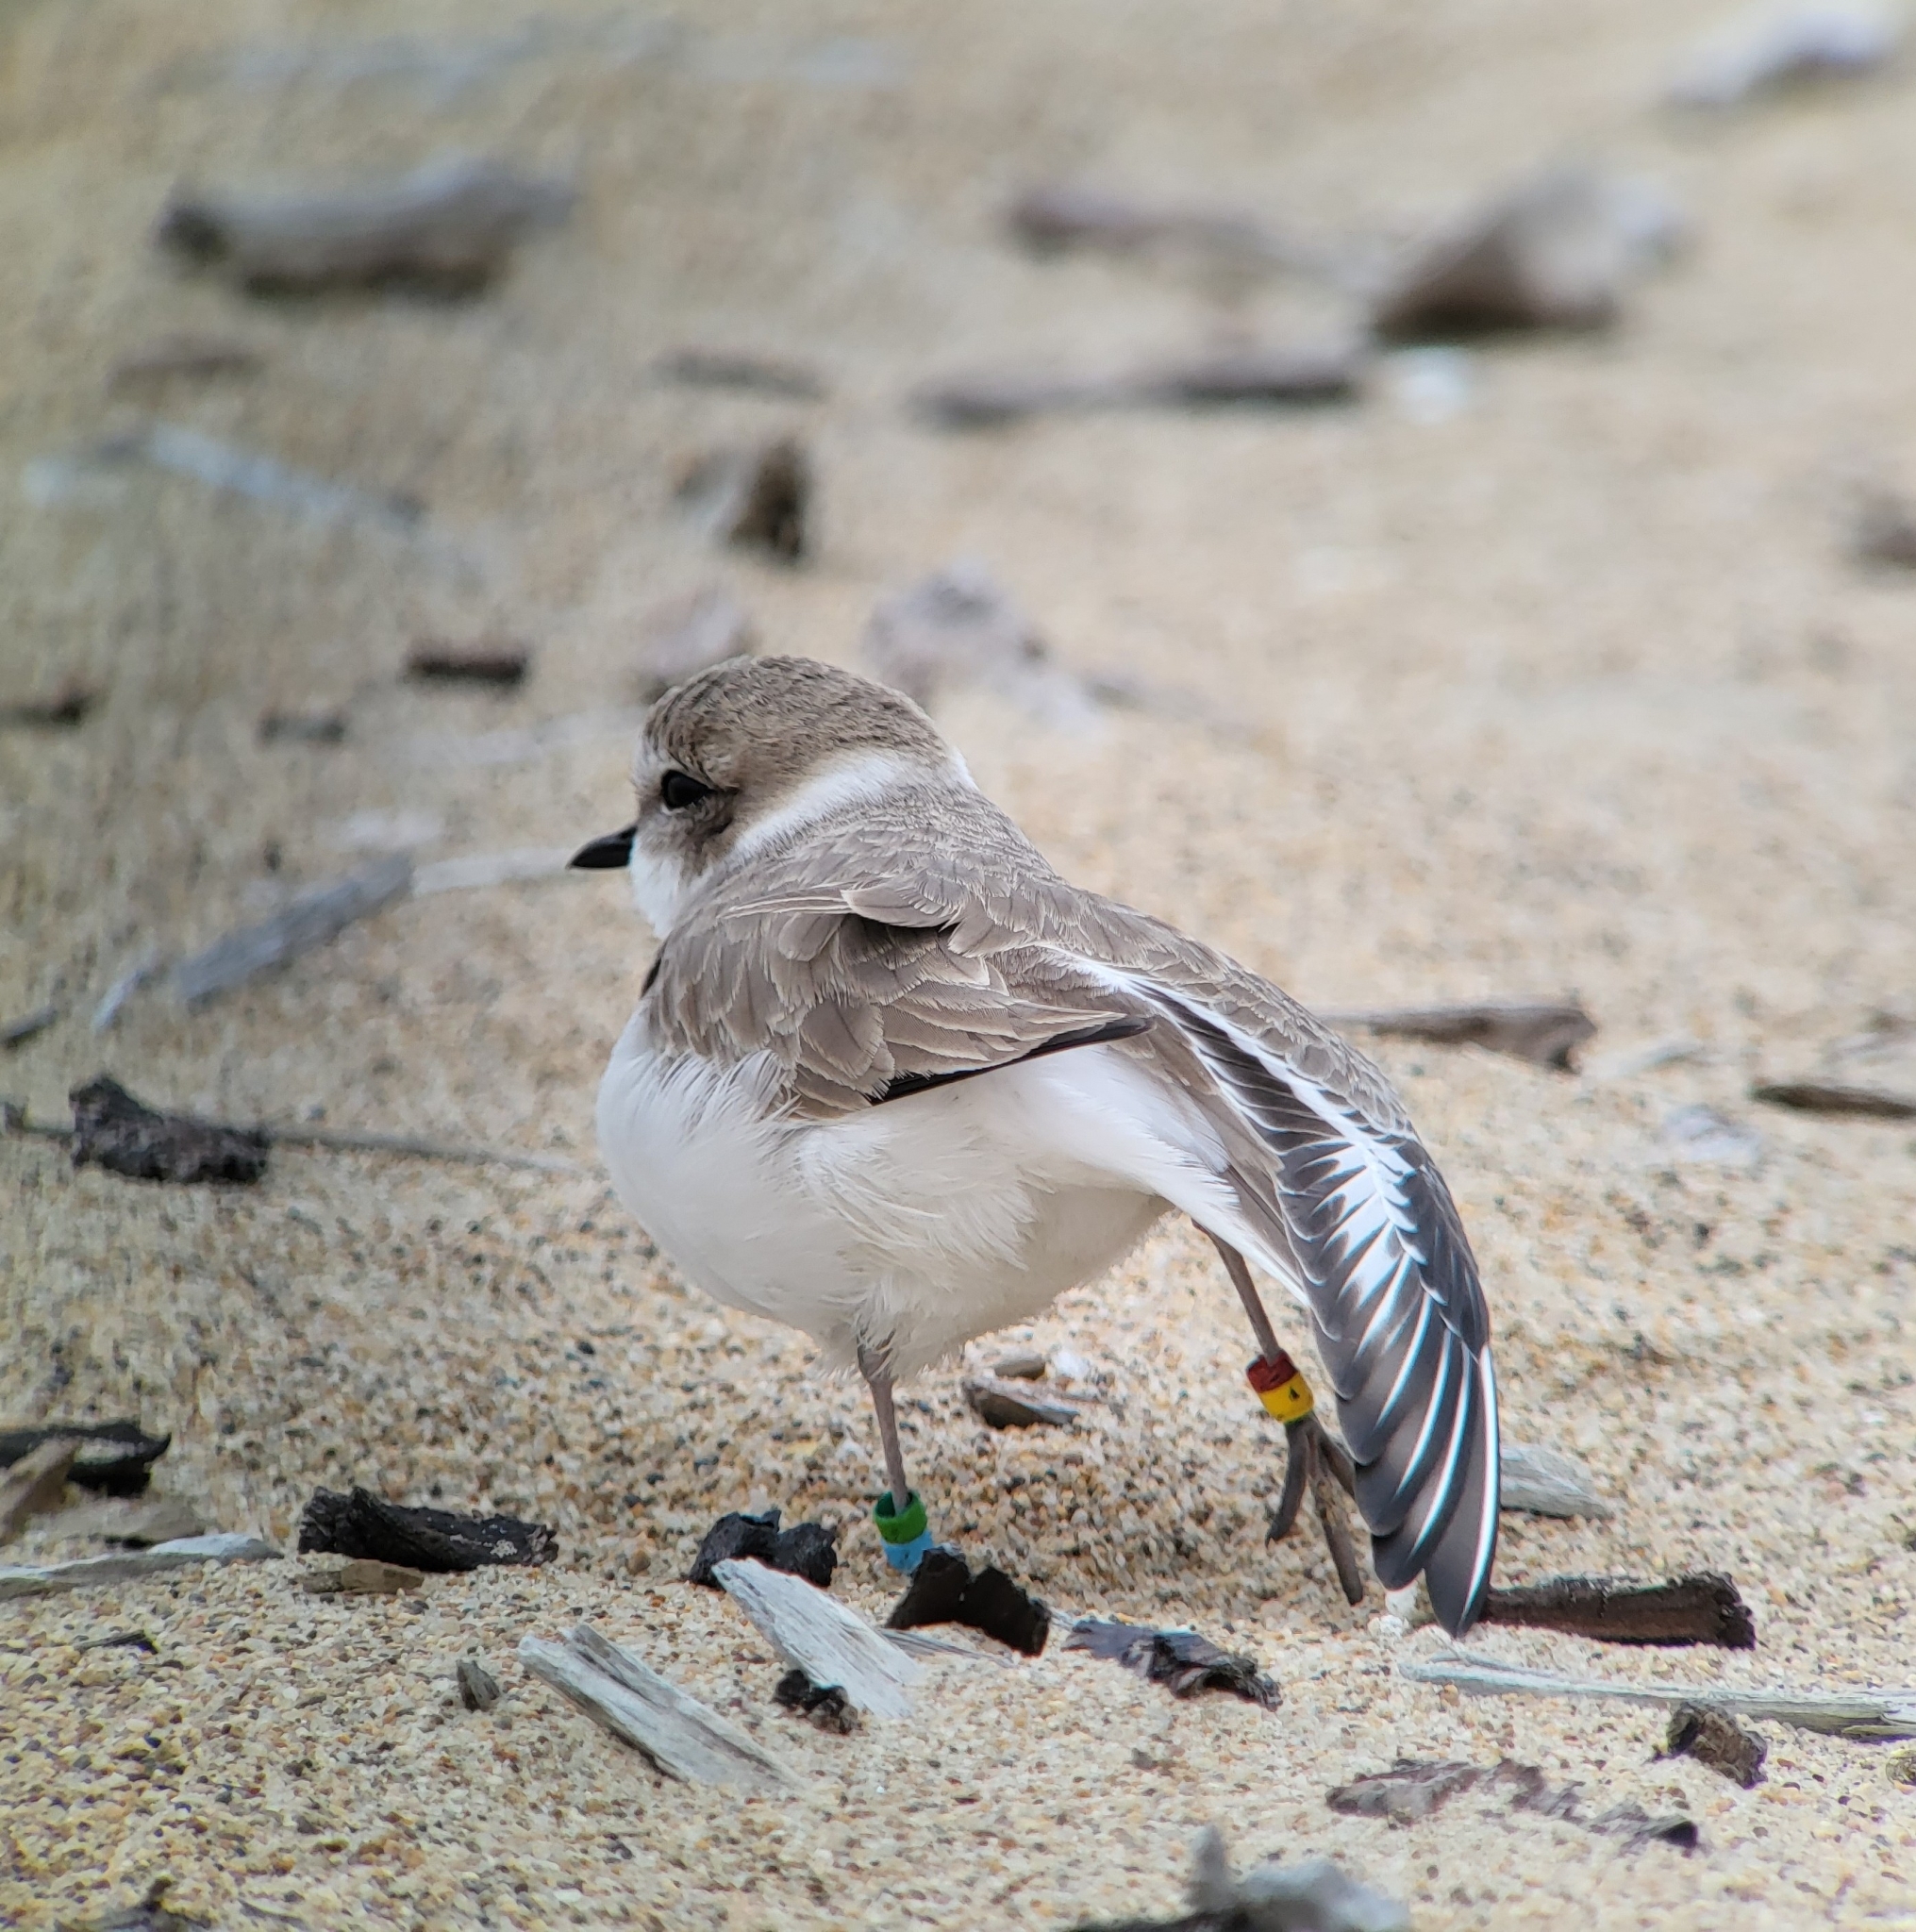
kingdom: Animalia
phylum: Chordata
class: Aves
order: Charadriiformes
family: Charadriidae
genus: Anarhynchus
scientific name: Anarhynchus
